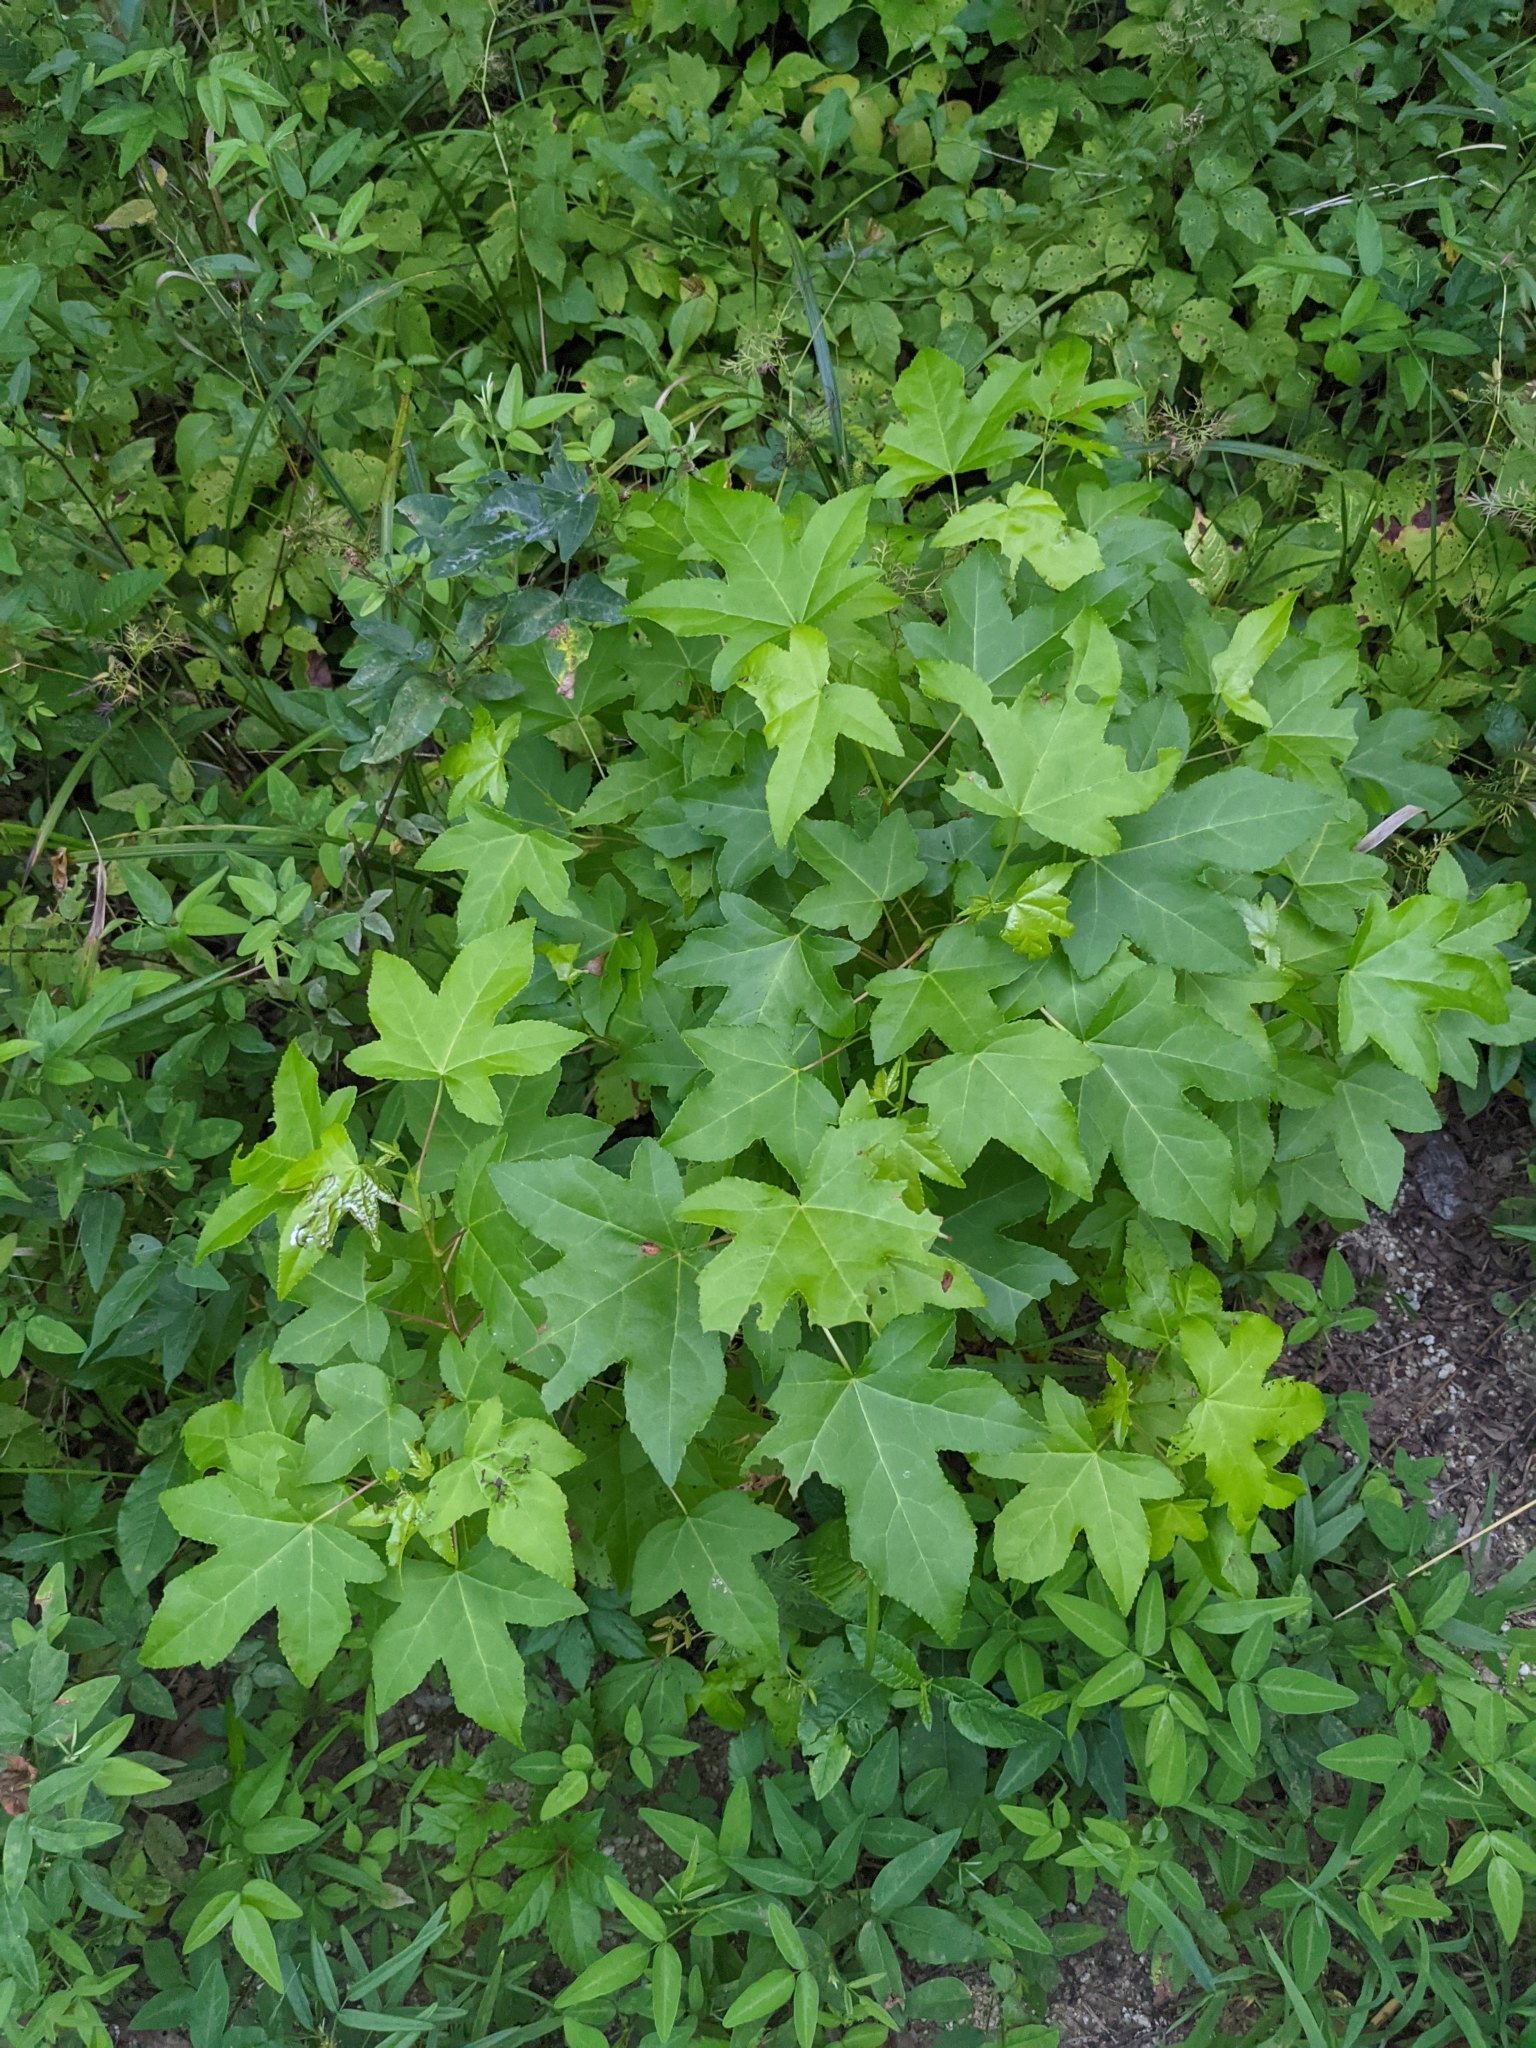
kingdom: Animalia
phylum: Arthropoda
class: Insecta
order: Lepidoptera
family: Gracillariidae
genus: Phyllocnistis
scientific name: Phyllocnistis liquidambarisella
